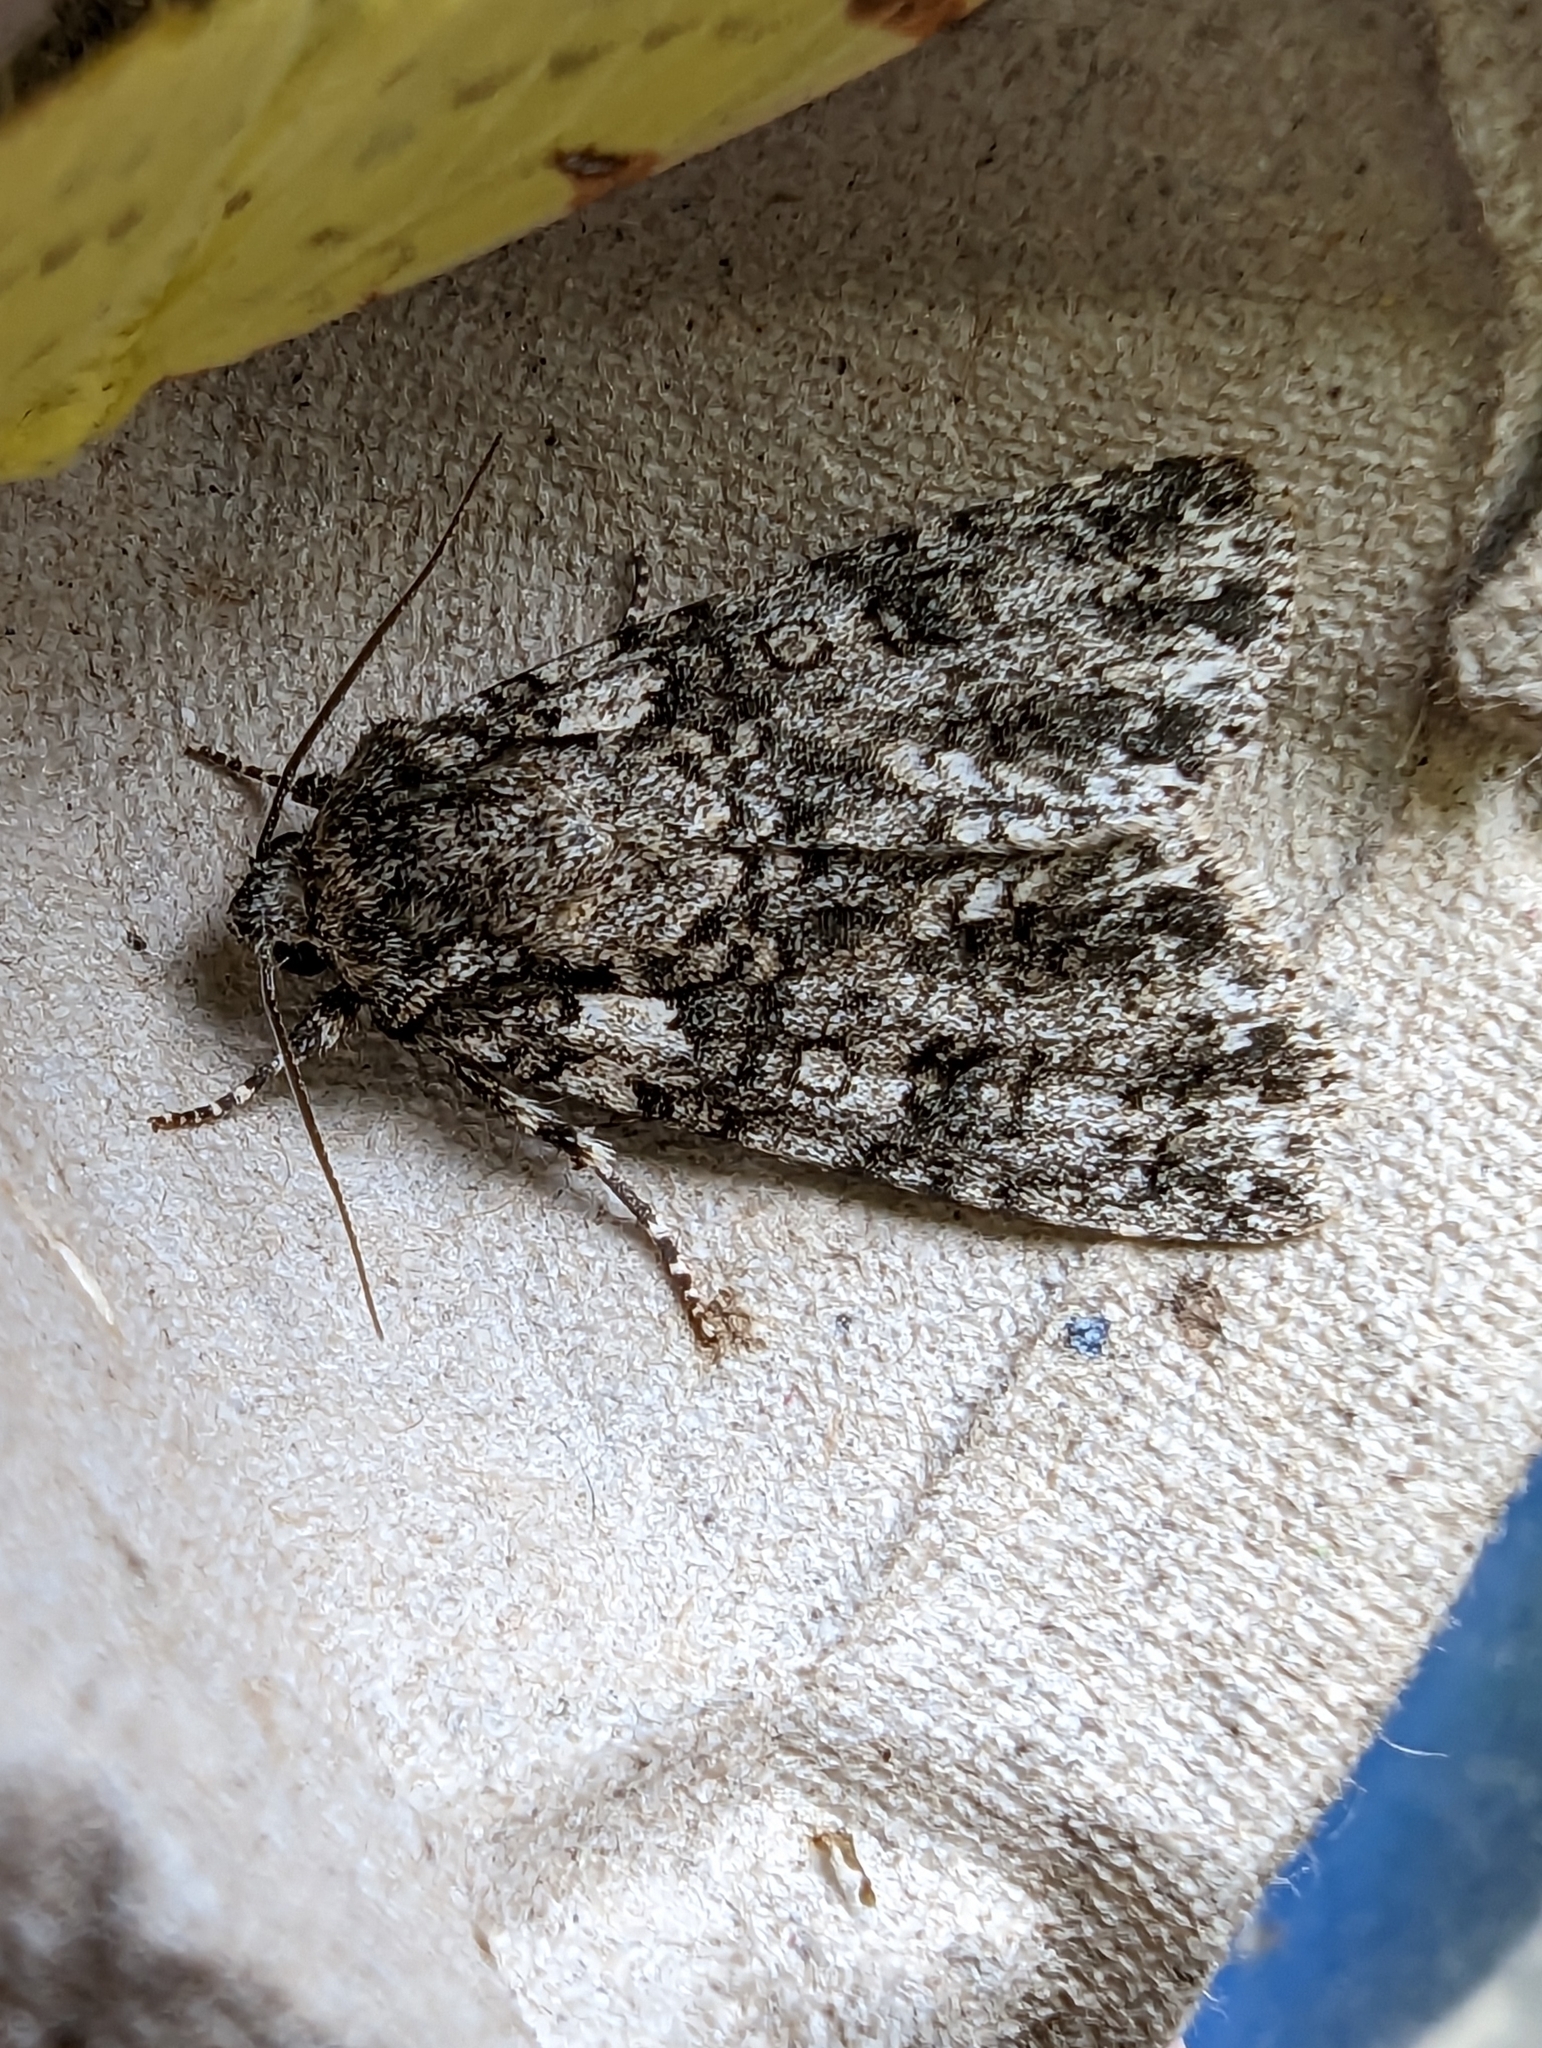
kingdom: Animalia
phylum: Arthropoda
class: Insecta
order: Lepidoptera
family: Noctuidae
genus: Acronicta
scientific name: Acronicta rumicis
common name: Knot grass
